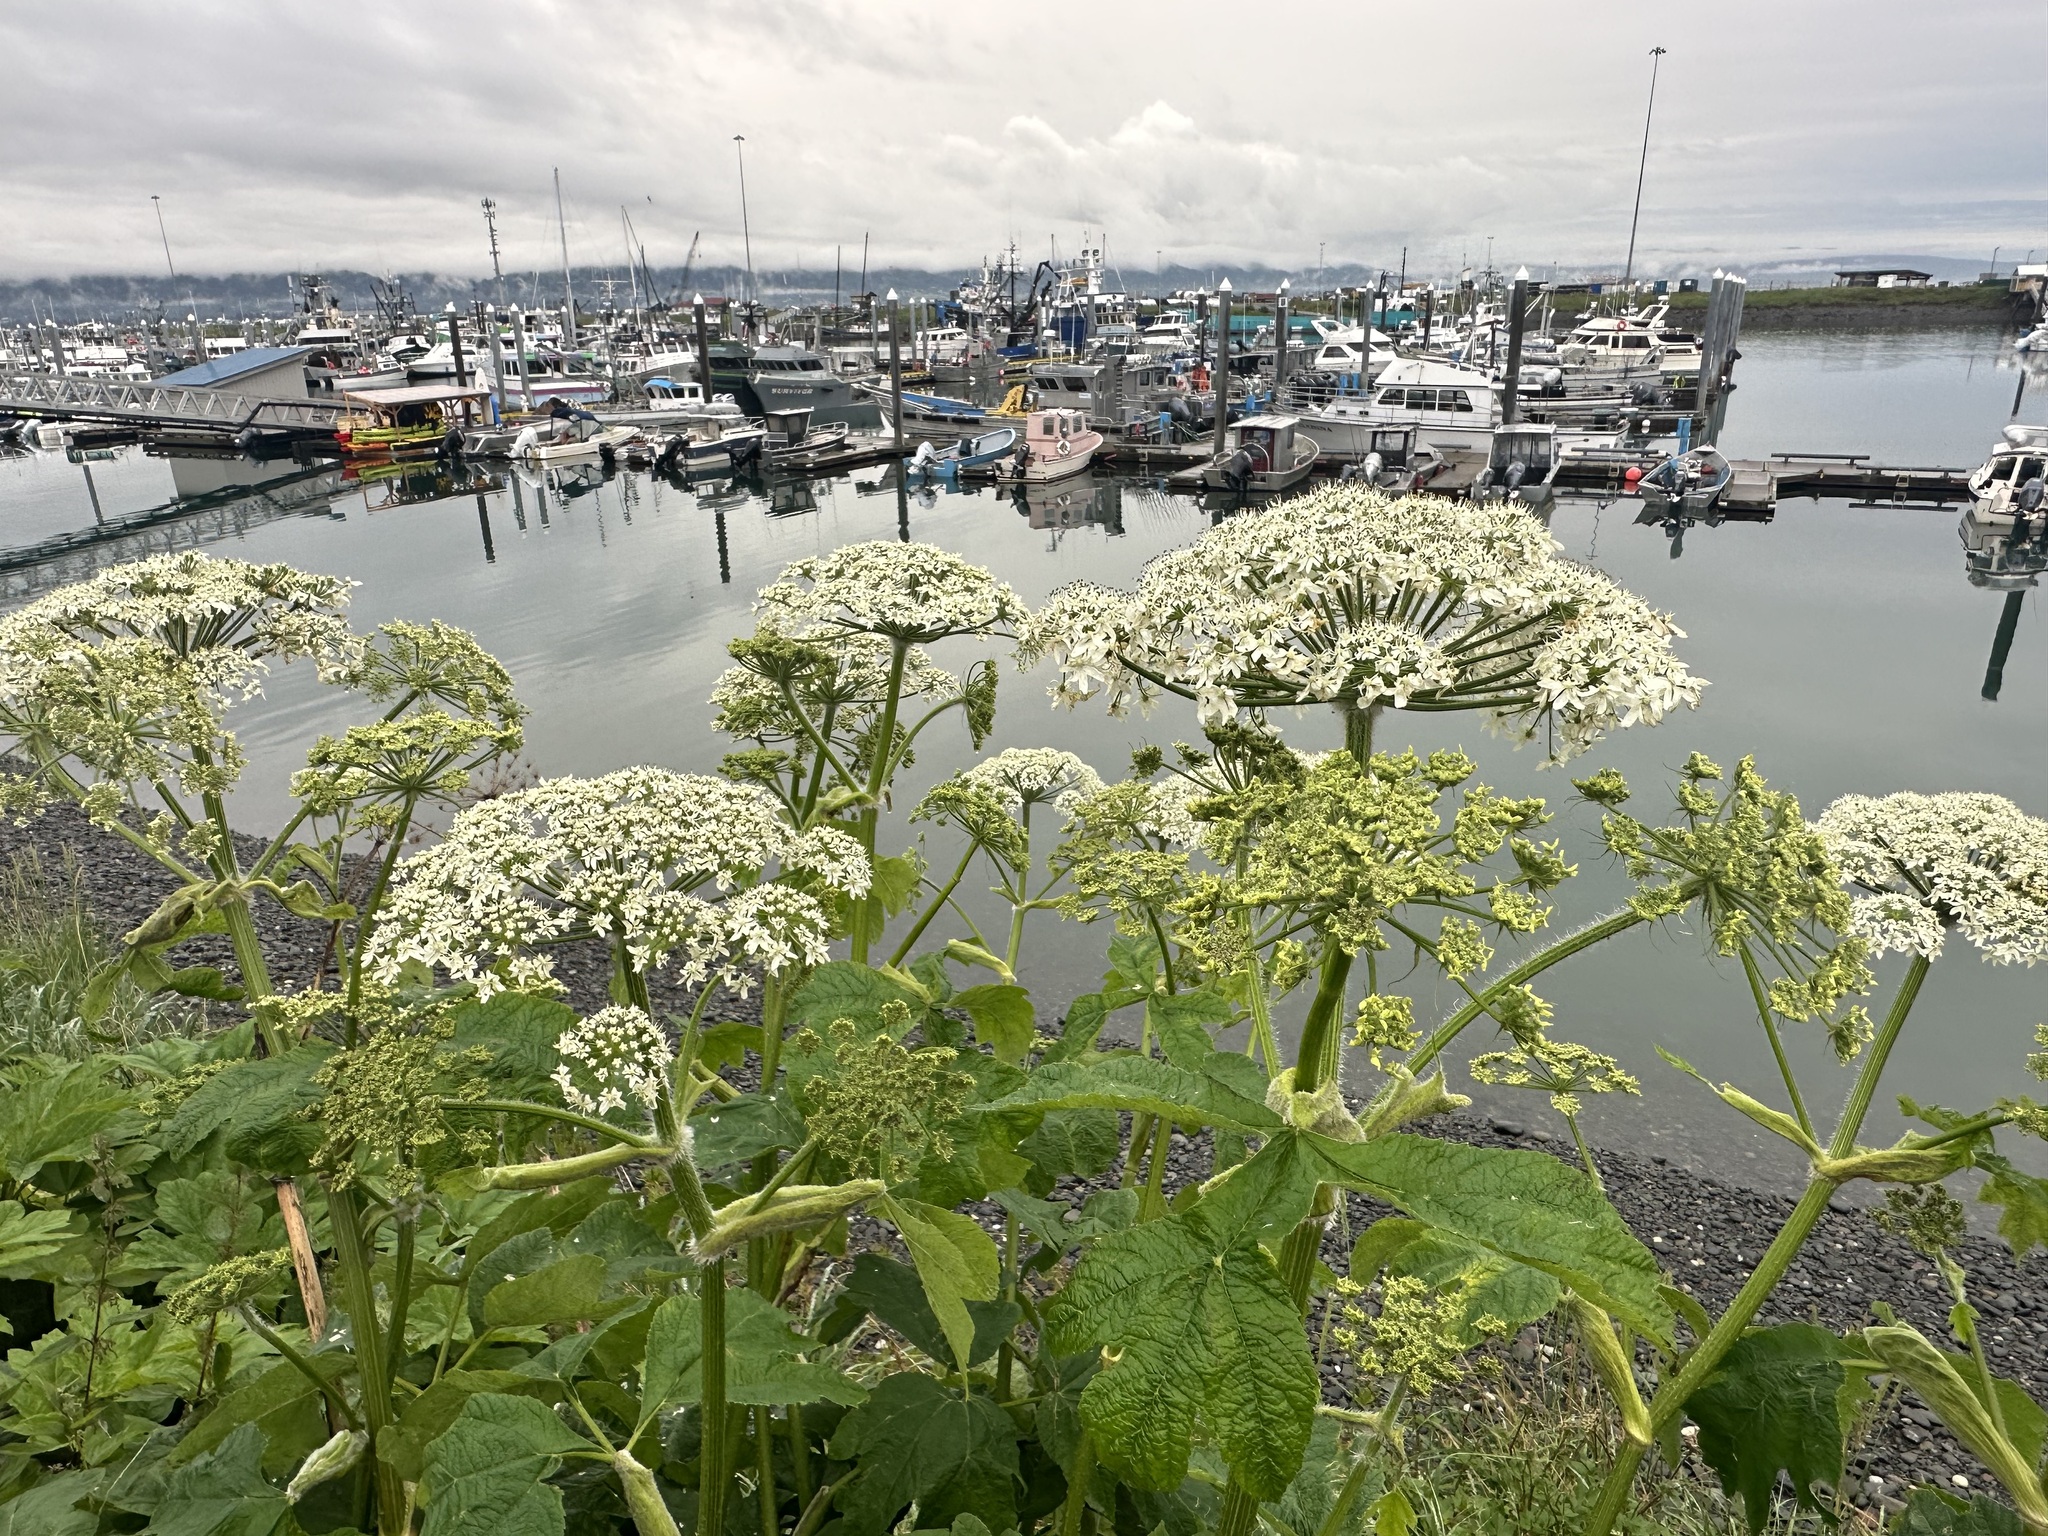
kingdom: Plantae
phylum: Tracheophyta
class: Magnoliopsida
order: Apiales
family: Apiaceae
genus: Heracleum
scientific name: Heracleum maximum
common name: American cow parsnip
